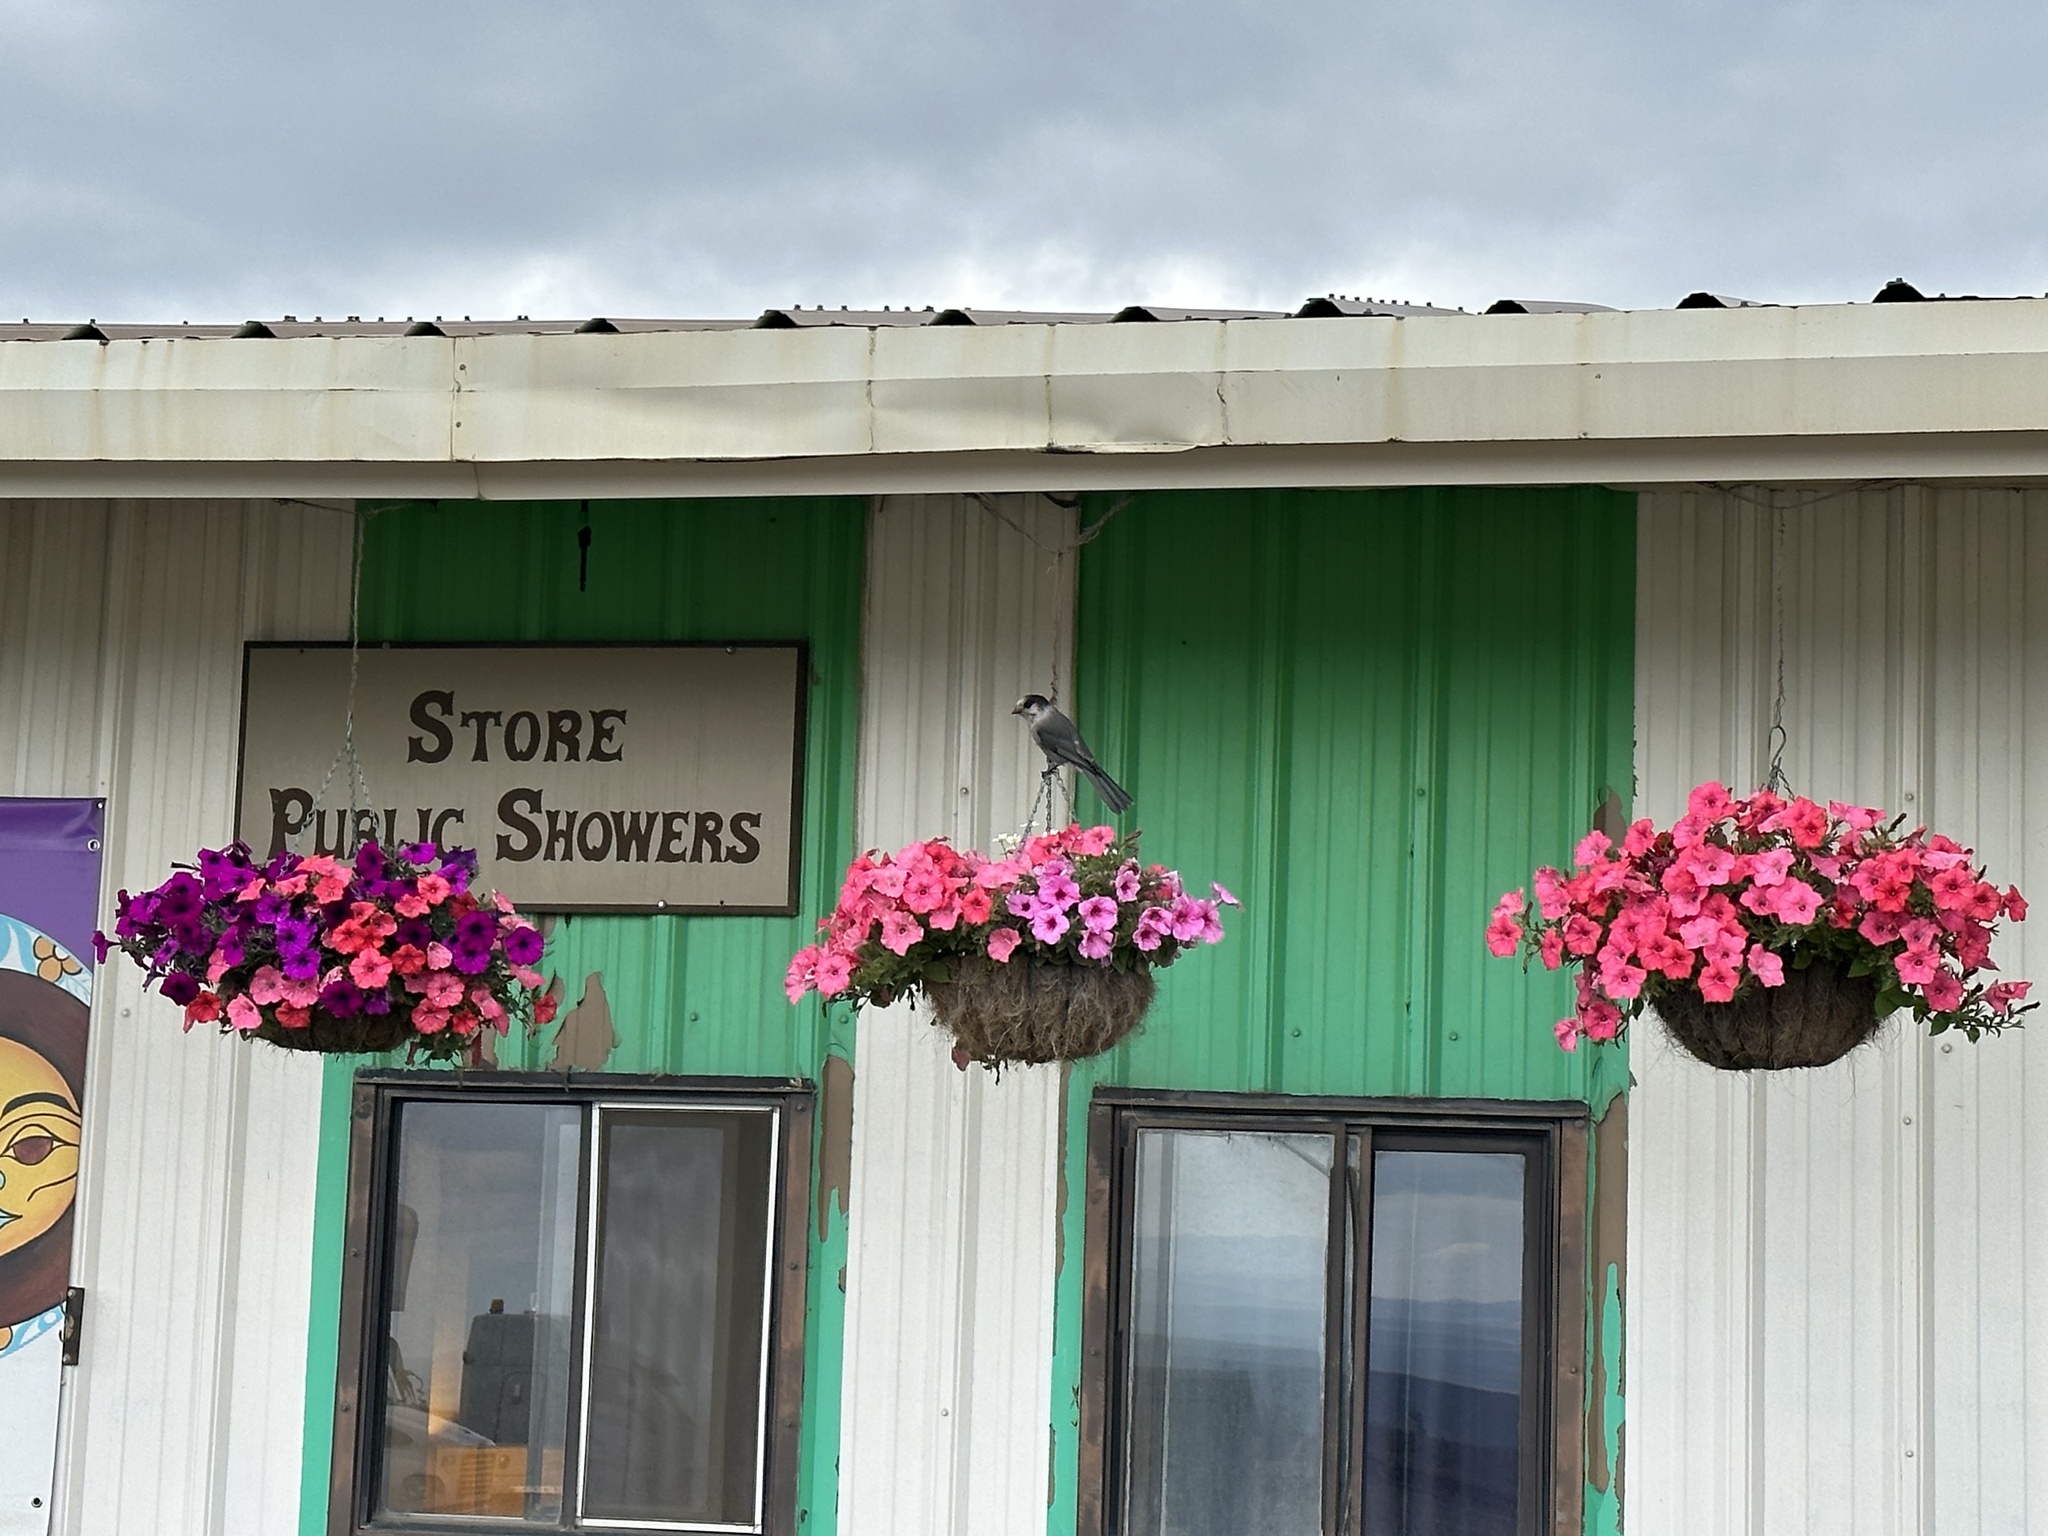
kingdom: Animalia
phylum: Chordata
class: Aves
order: Passeriformes
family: Corvidae
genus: Perisoreus
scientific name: Perisoreus canadensis
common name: Gray jay
